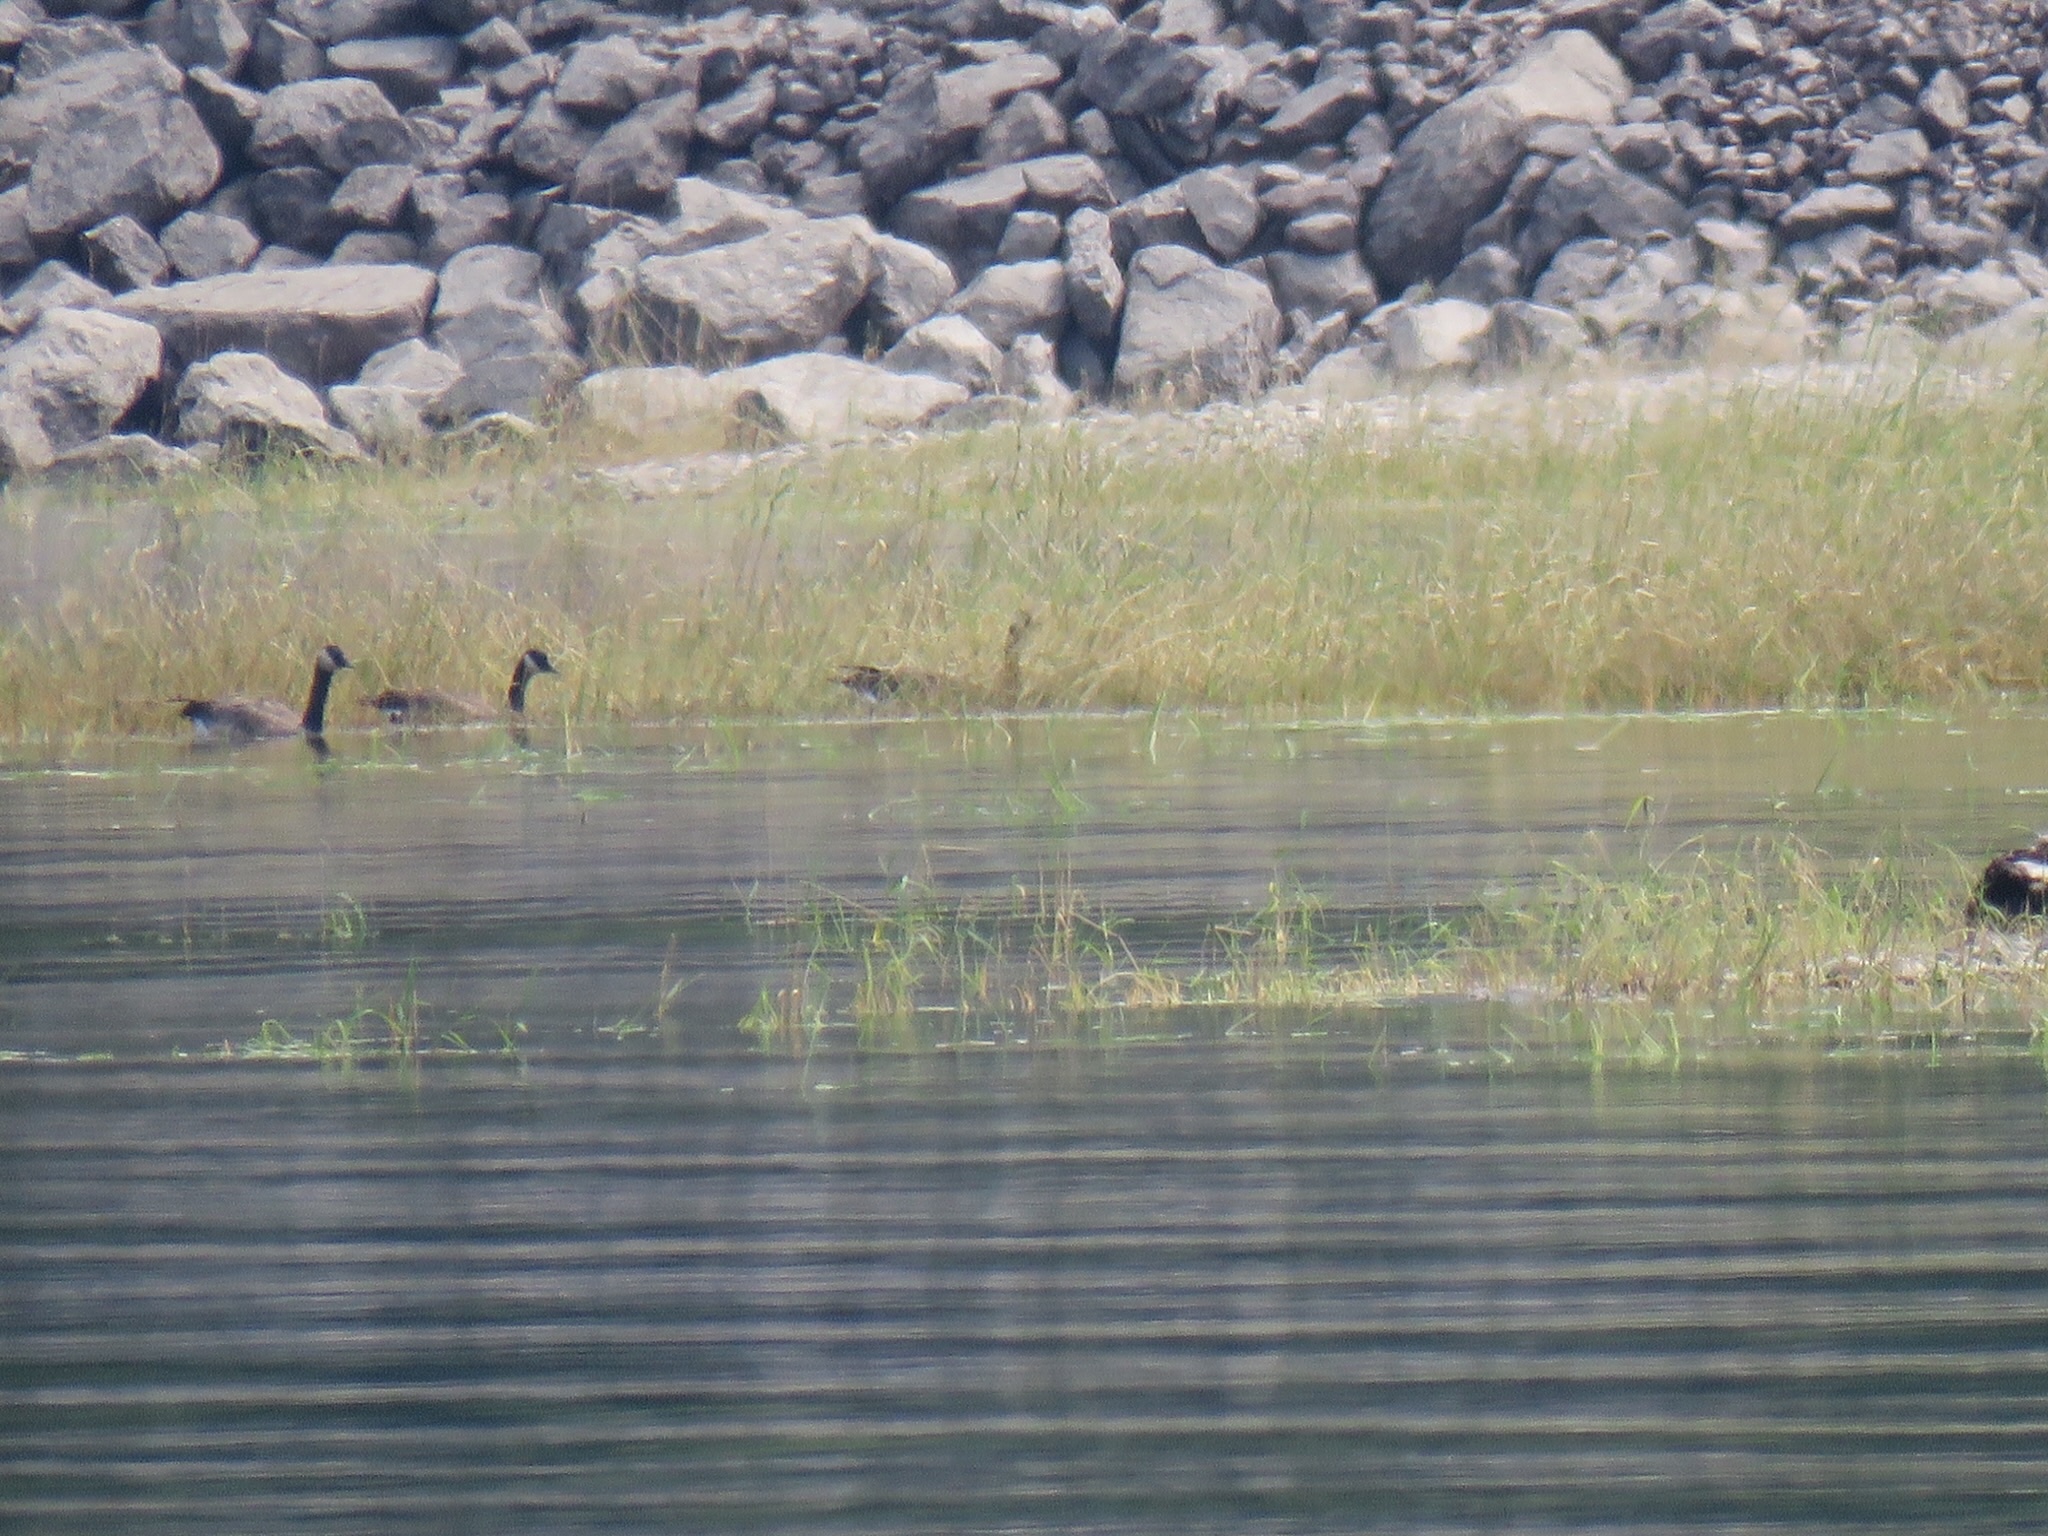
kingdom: Animalia
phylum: Chordata
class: Aves
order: Anseriformes
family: Anatidae
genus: Branta
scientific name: Branta canadensis
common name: Canada goose
